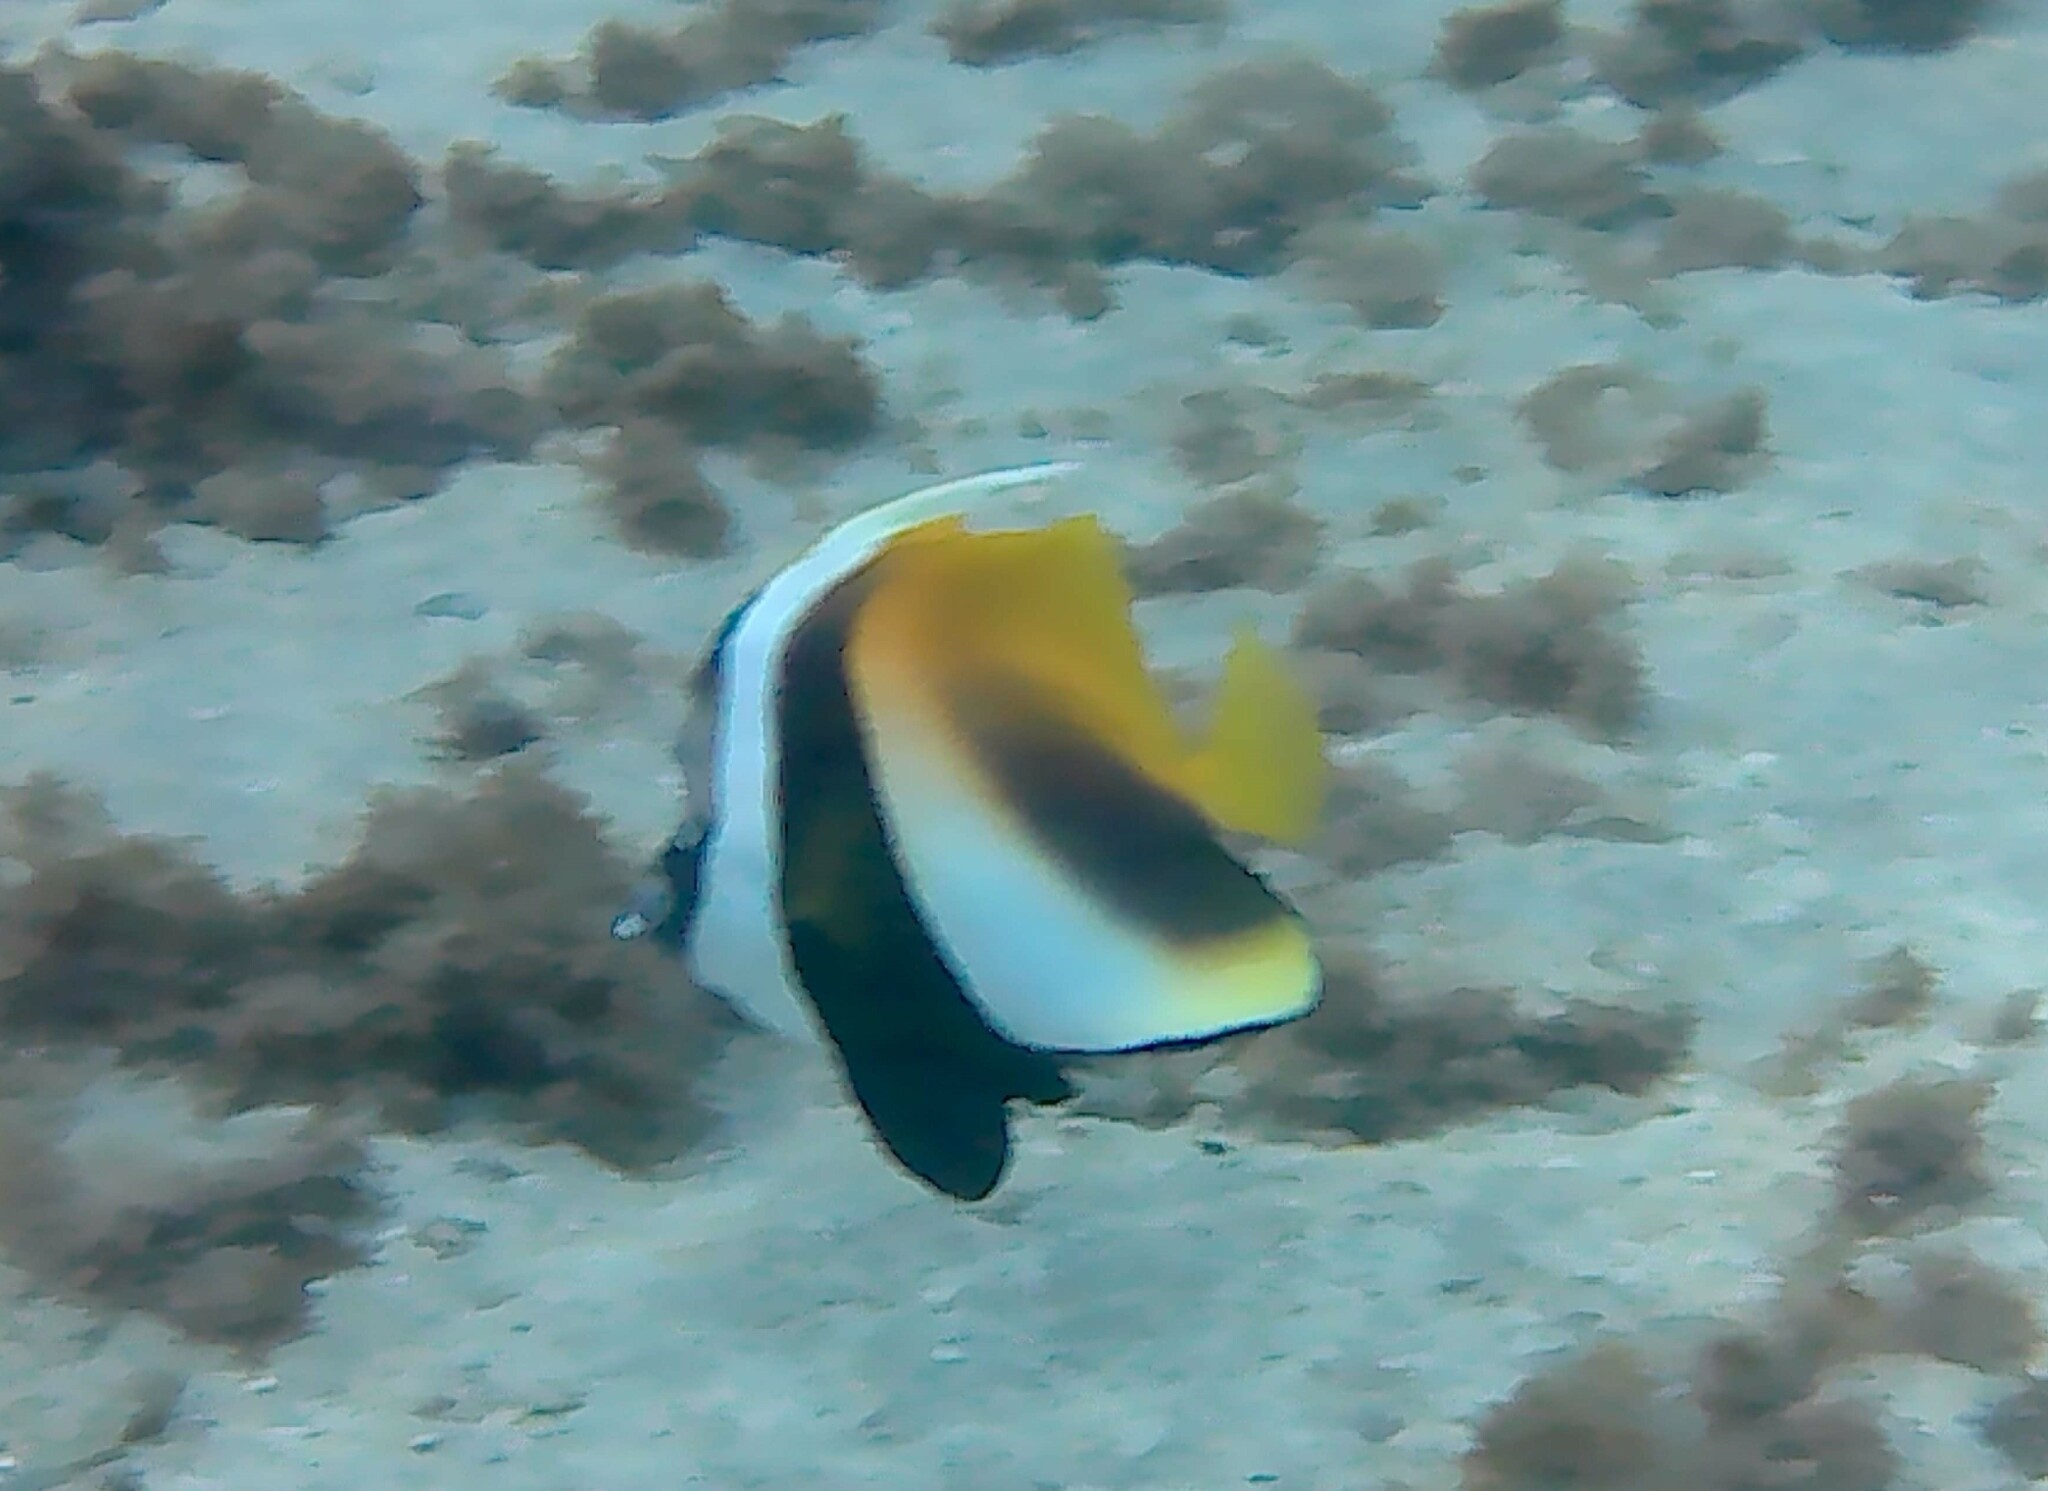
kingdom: Animalia
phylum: Chordata
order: Perciformes
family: Chaetodontidae
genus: Heniochus
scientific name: Heniochus monoceros
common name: Masked bannerfish
